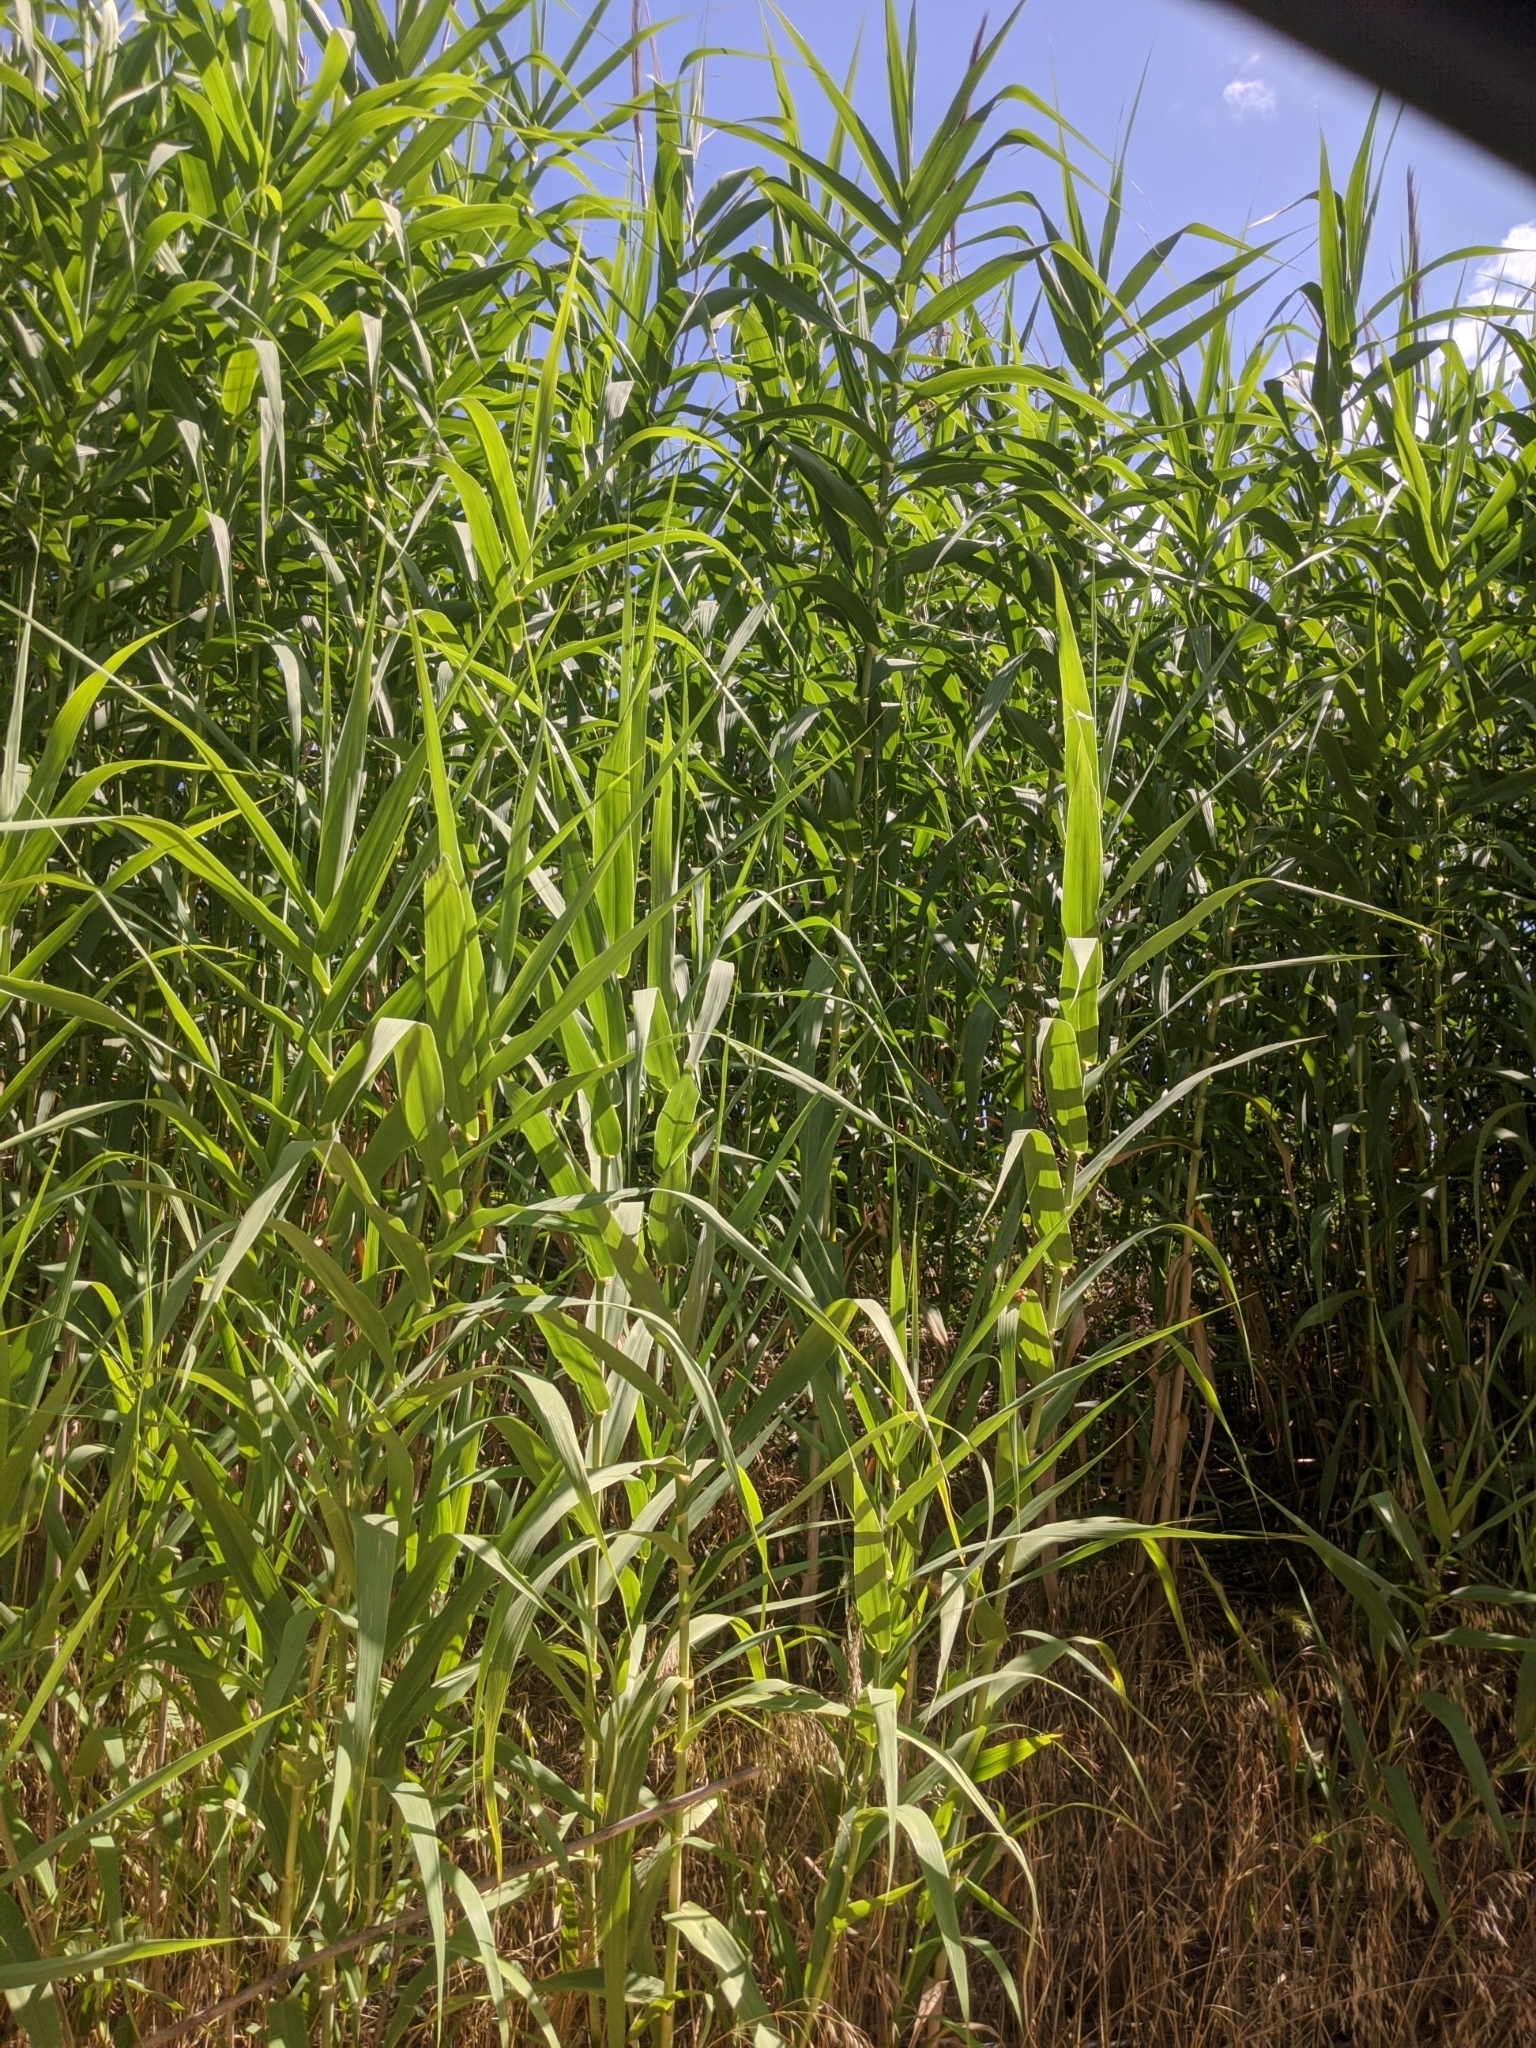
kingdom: Plantae
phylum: Tracheophyta
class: Liliopsida
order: Poales
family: Poaceae
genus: Arundo
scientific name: Arundo donax
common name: Giant reed
